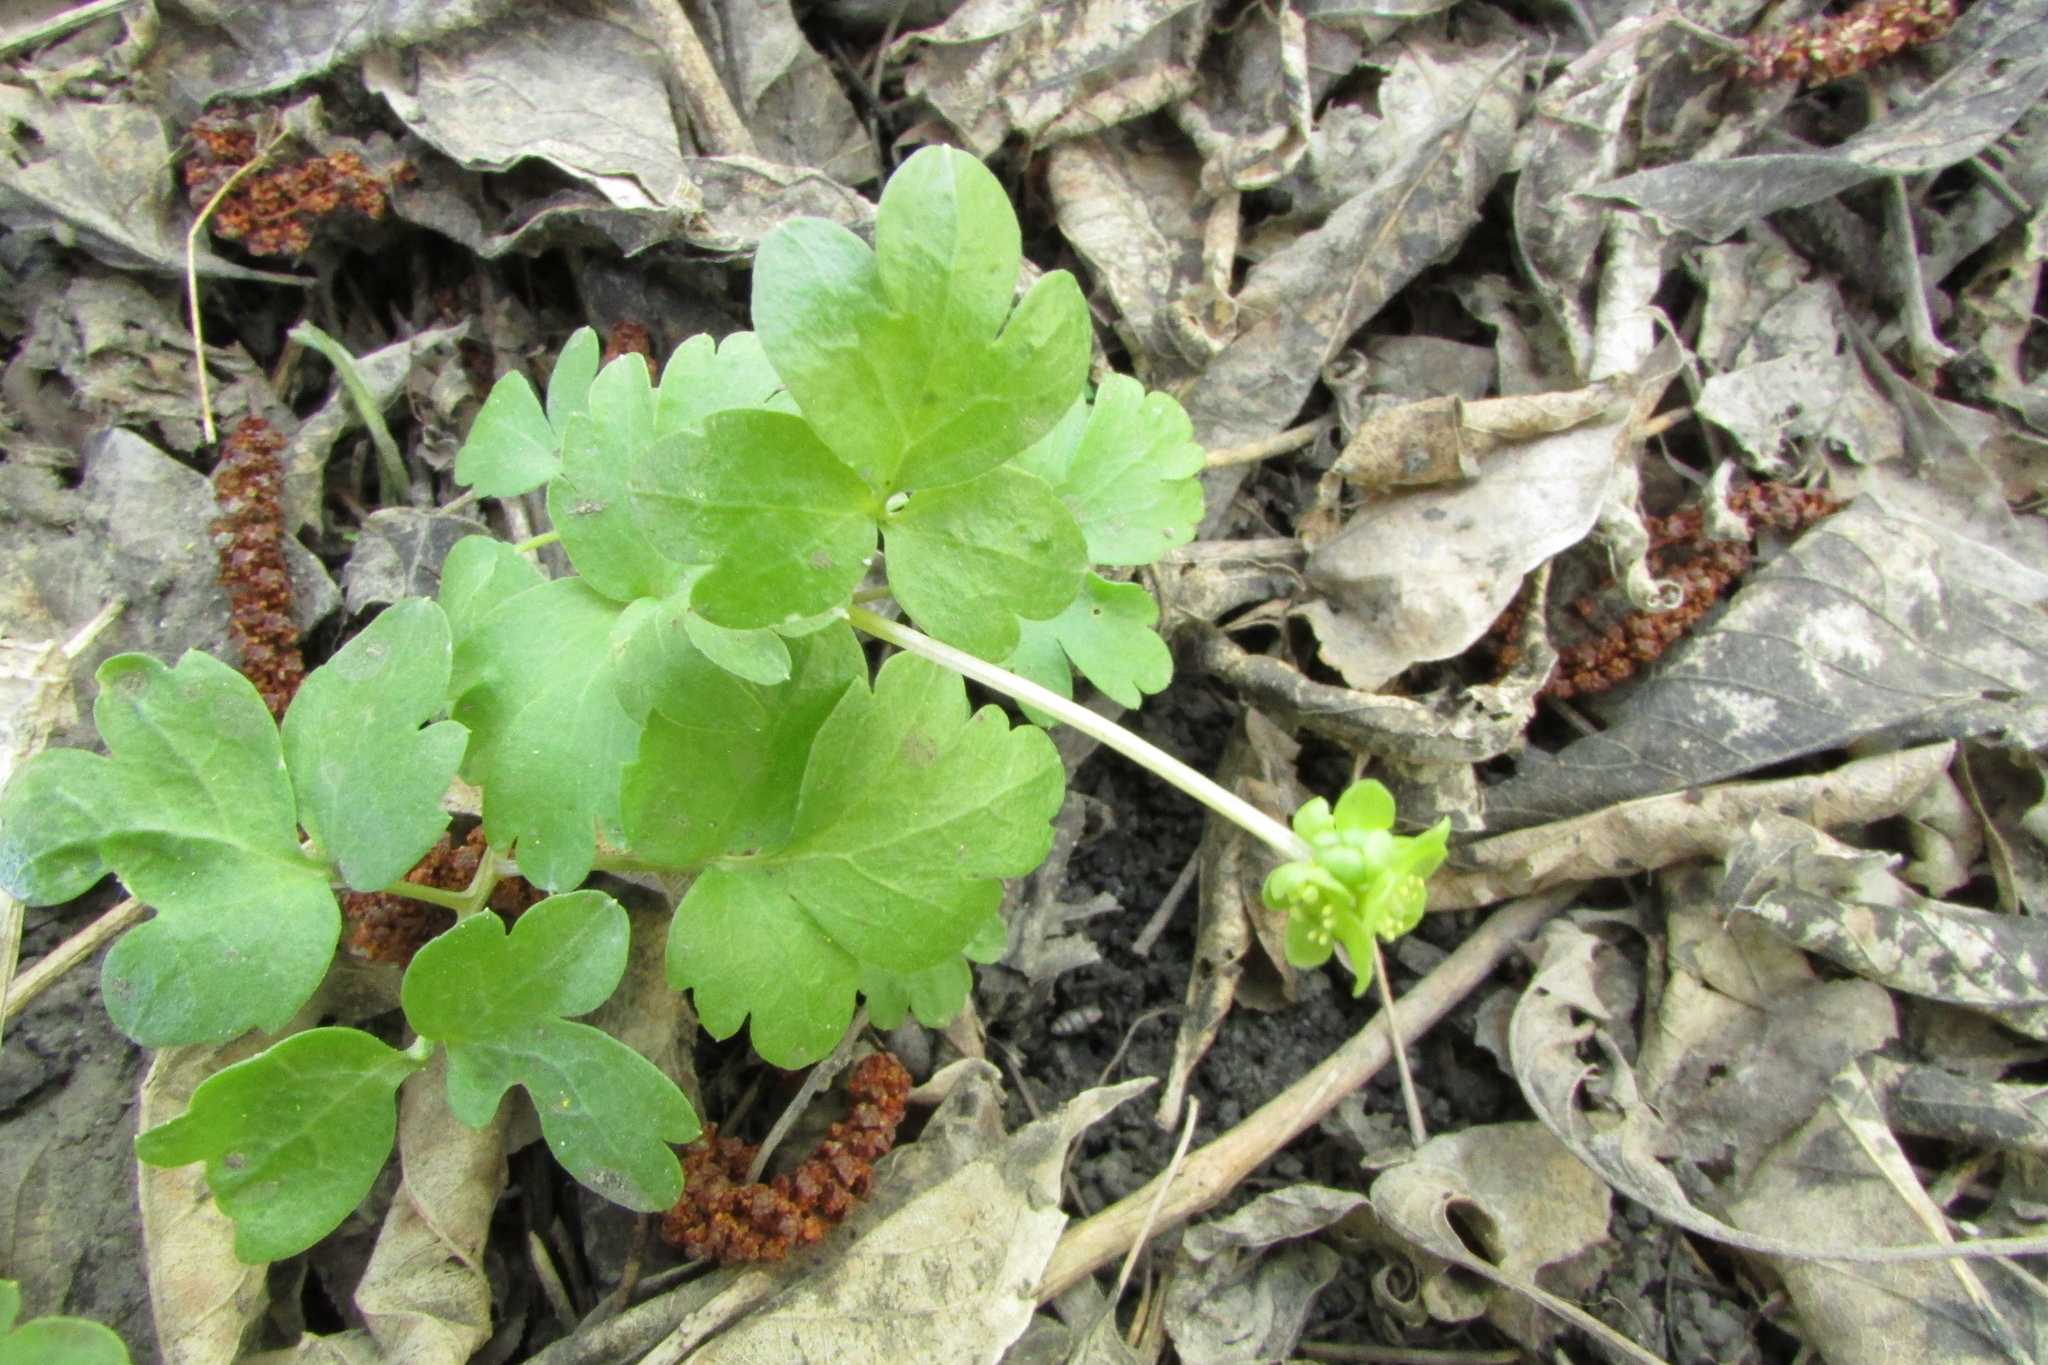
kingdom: Plantae
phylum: Tracheophyta
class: Magnoliopsida
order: Dipsacales
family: Viburnaceae
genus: Adoxa
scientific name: Adoxa moschatellina
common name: Moschatel
